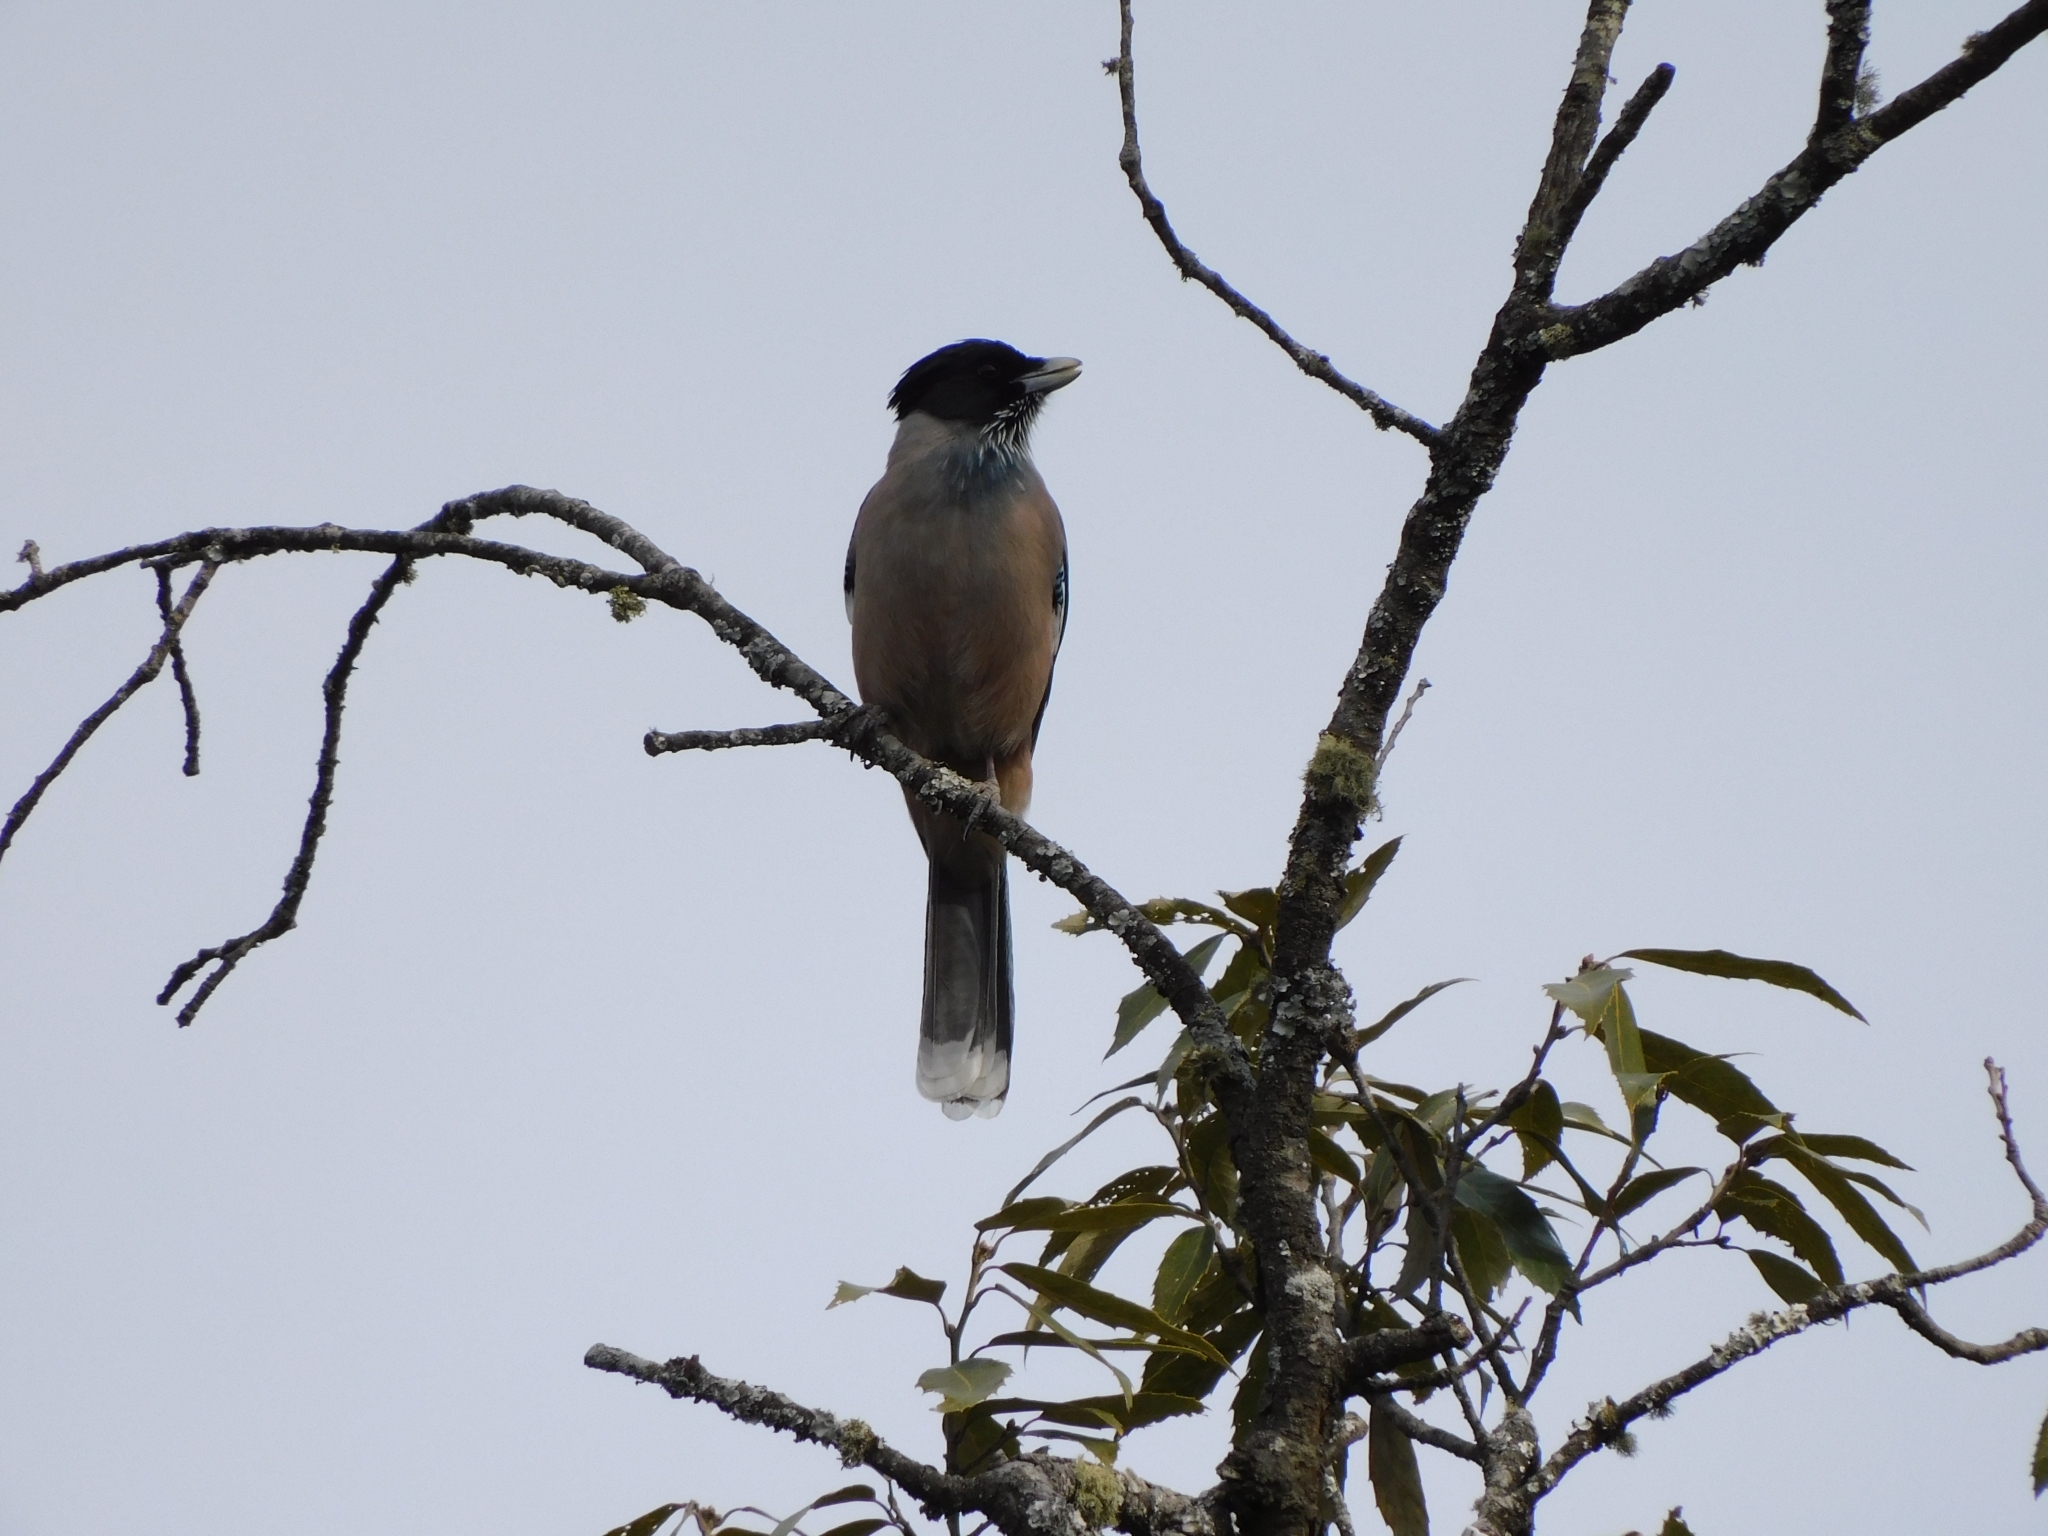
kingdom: Animalia
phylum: Chordata
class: Aves
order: Passeriformes
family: Corvidae
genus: Garrulus
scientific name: Garrulus lanceolatus
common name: Black-headed jay
